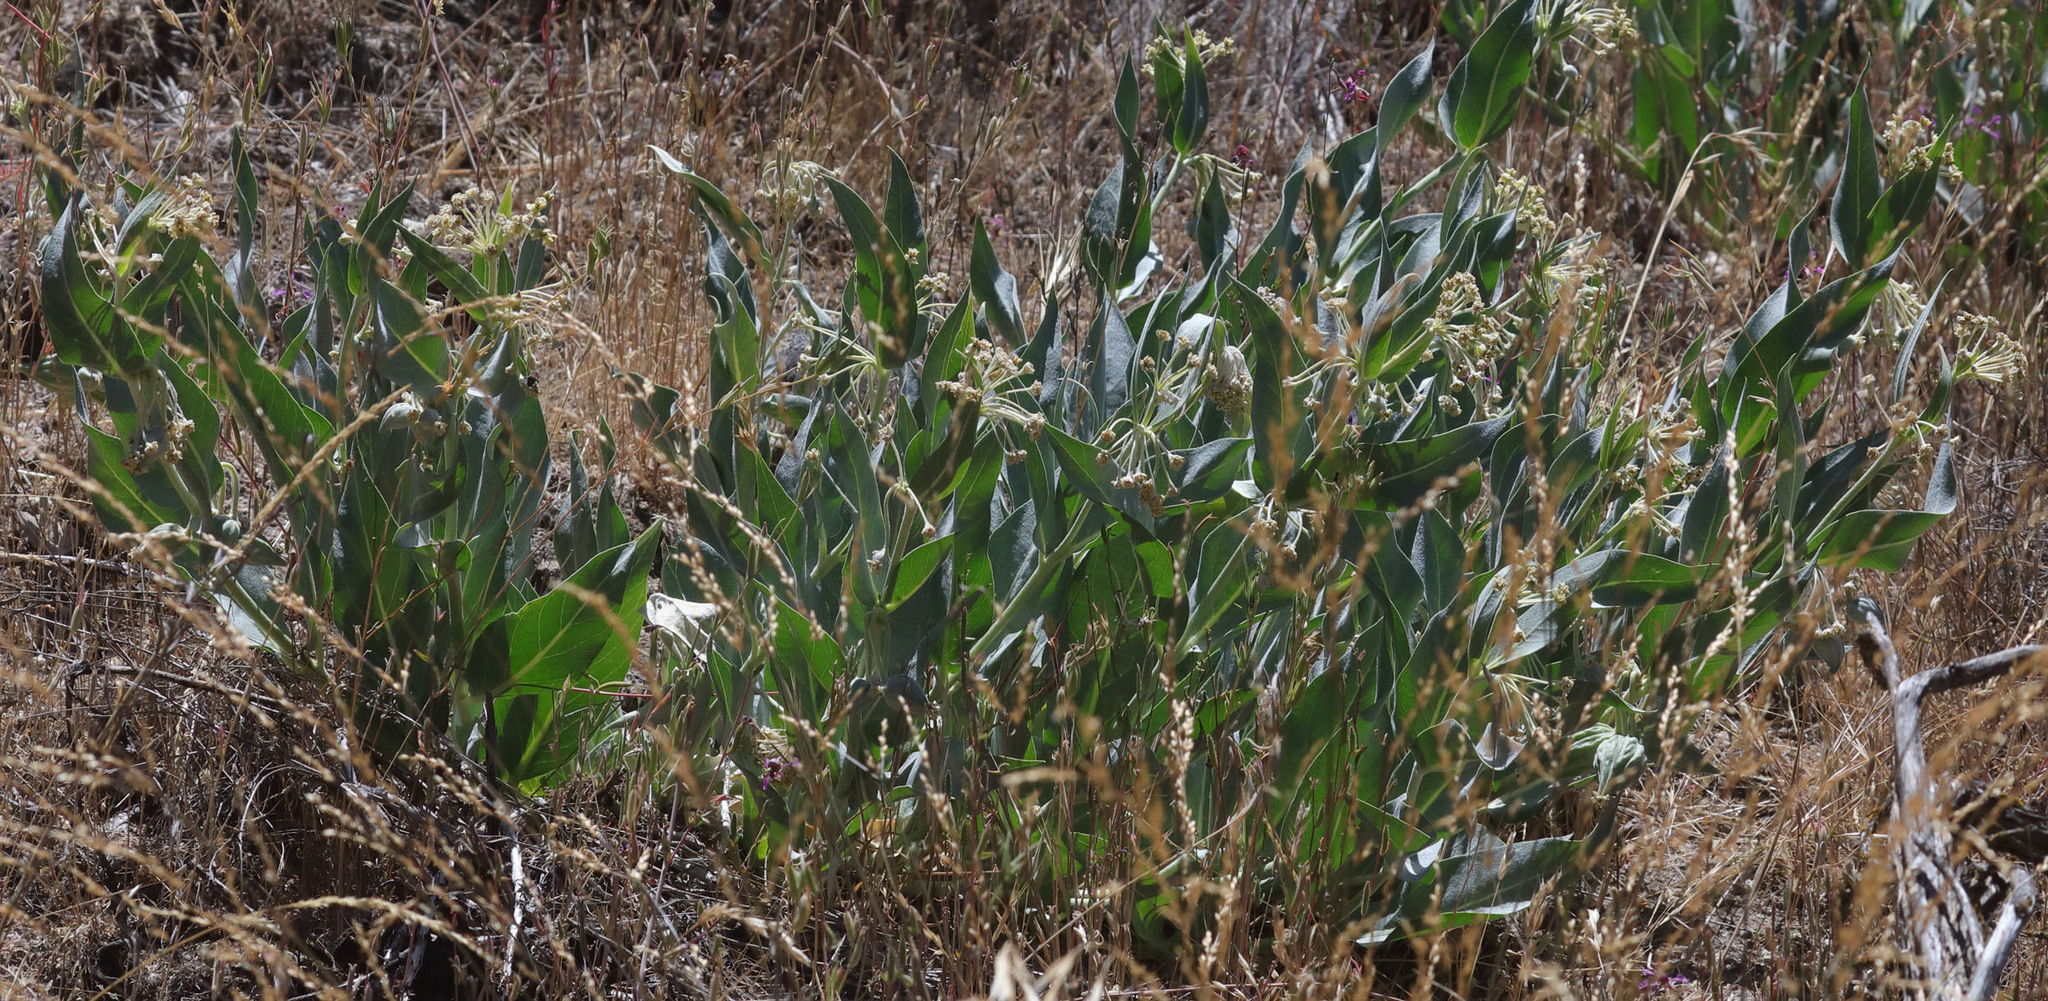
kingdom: Plantae
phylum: Tracheophyta
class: Magnoliopsida
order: Gentianales
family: Apocynaceae
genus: Asclepias
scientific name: Asclepias vestita
